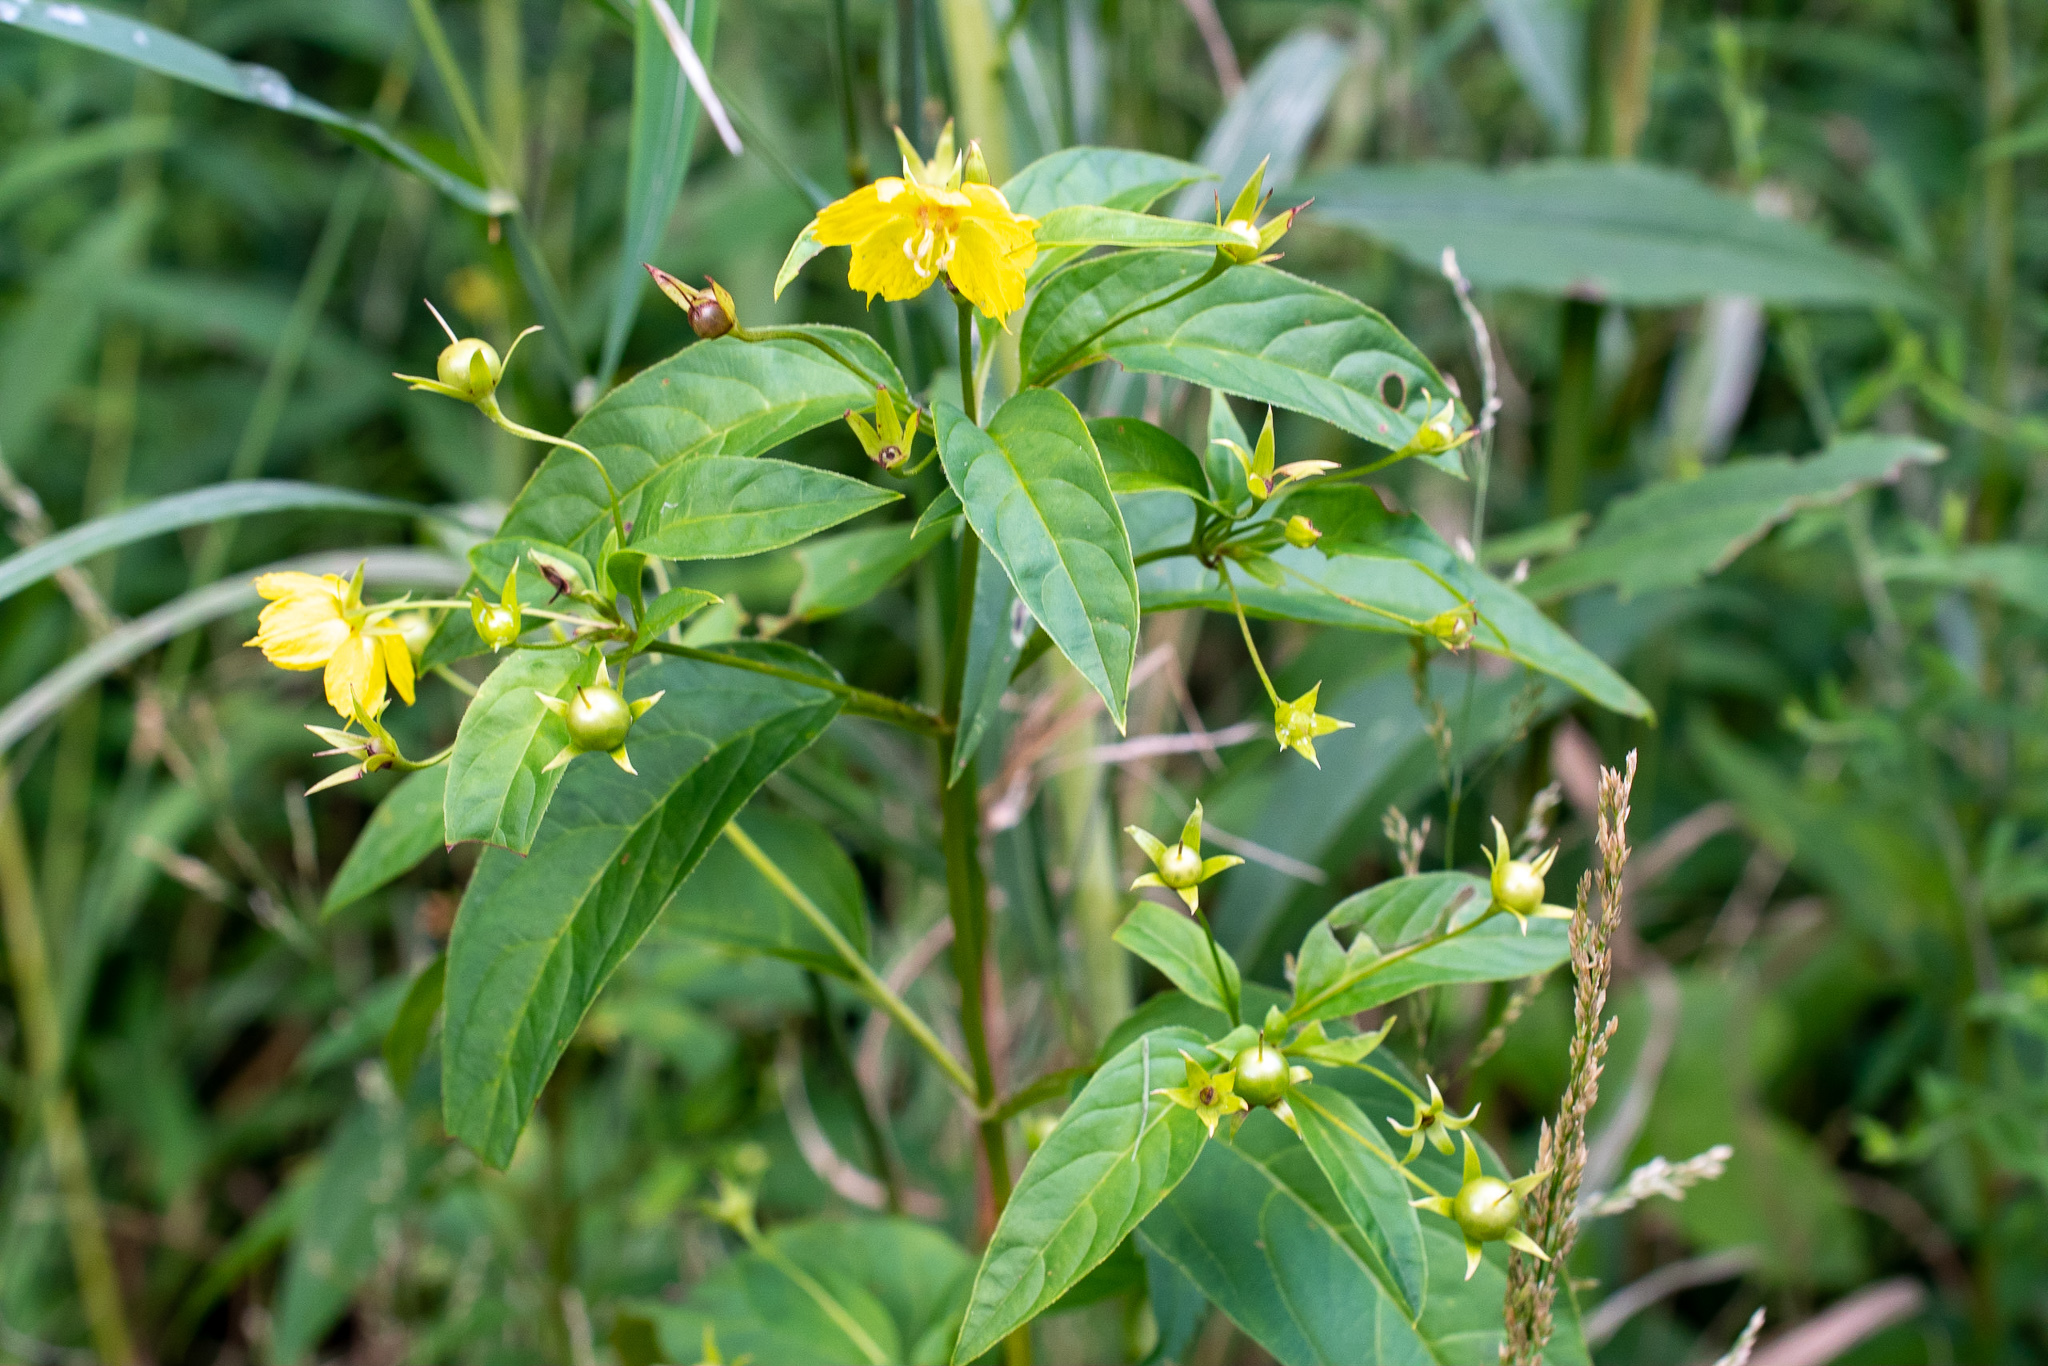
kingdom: Plantae
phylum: Tracheophyta
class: Magnoliopsida
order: Ericales
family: Primulaceae
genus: Lysimachia
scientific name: Lysimachia ciliata
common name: Fringed loosestrife
